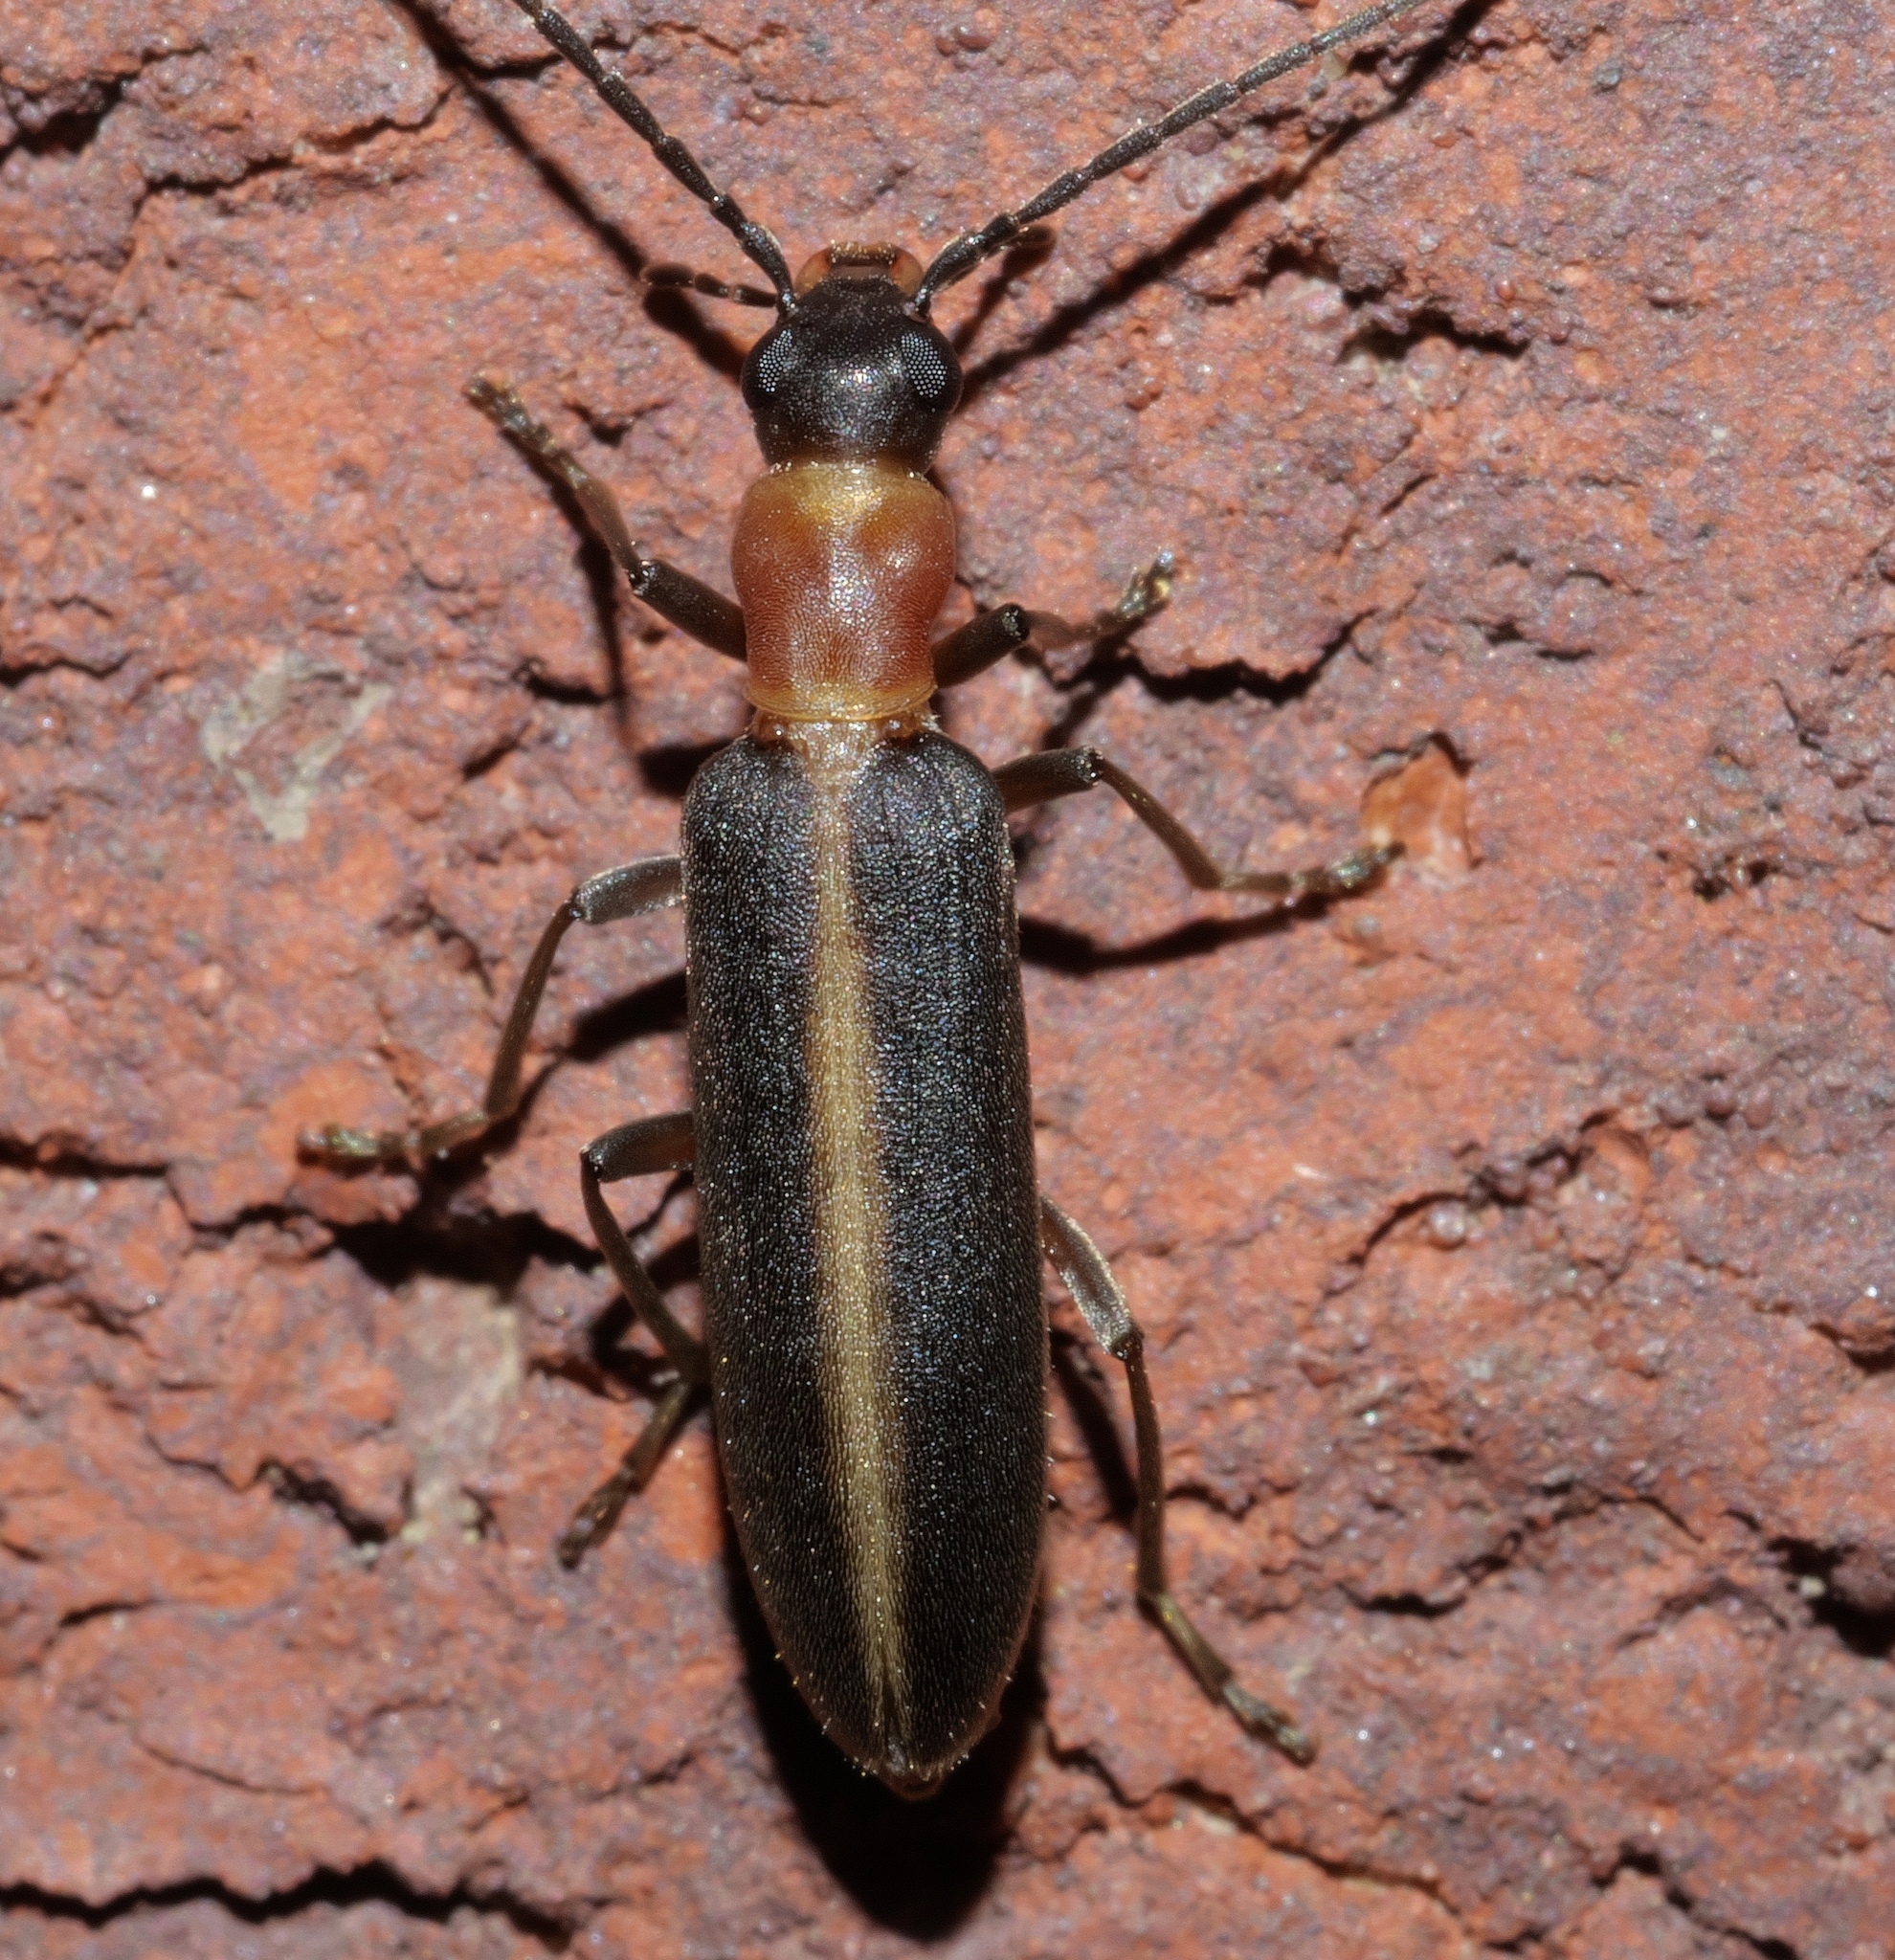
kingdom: Animalia
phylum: Arthropoda
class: Insecta
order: Coleoptera
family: Oedemeridae
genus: Oxycopis
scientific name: Oxycopis mimetica
